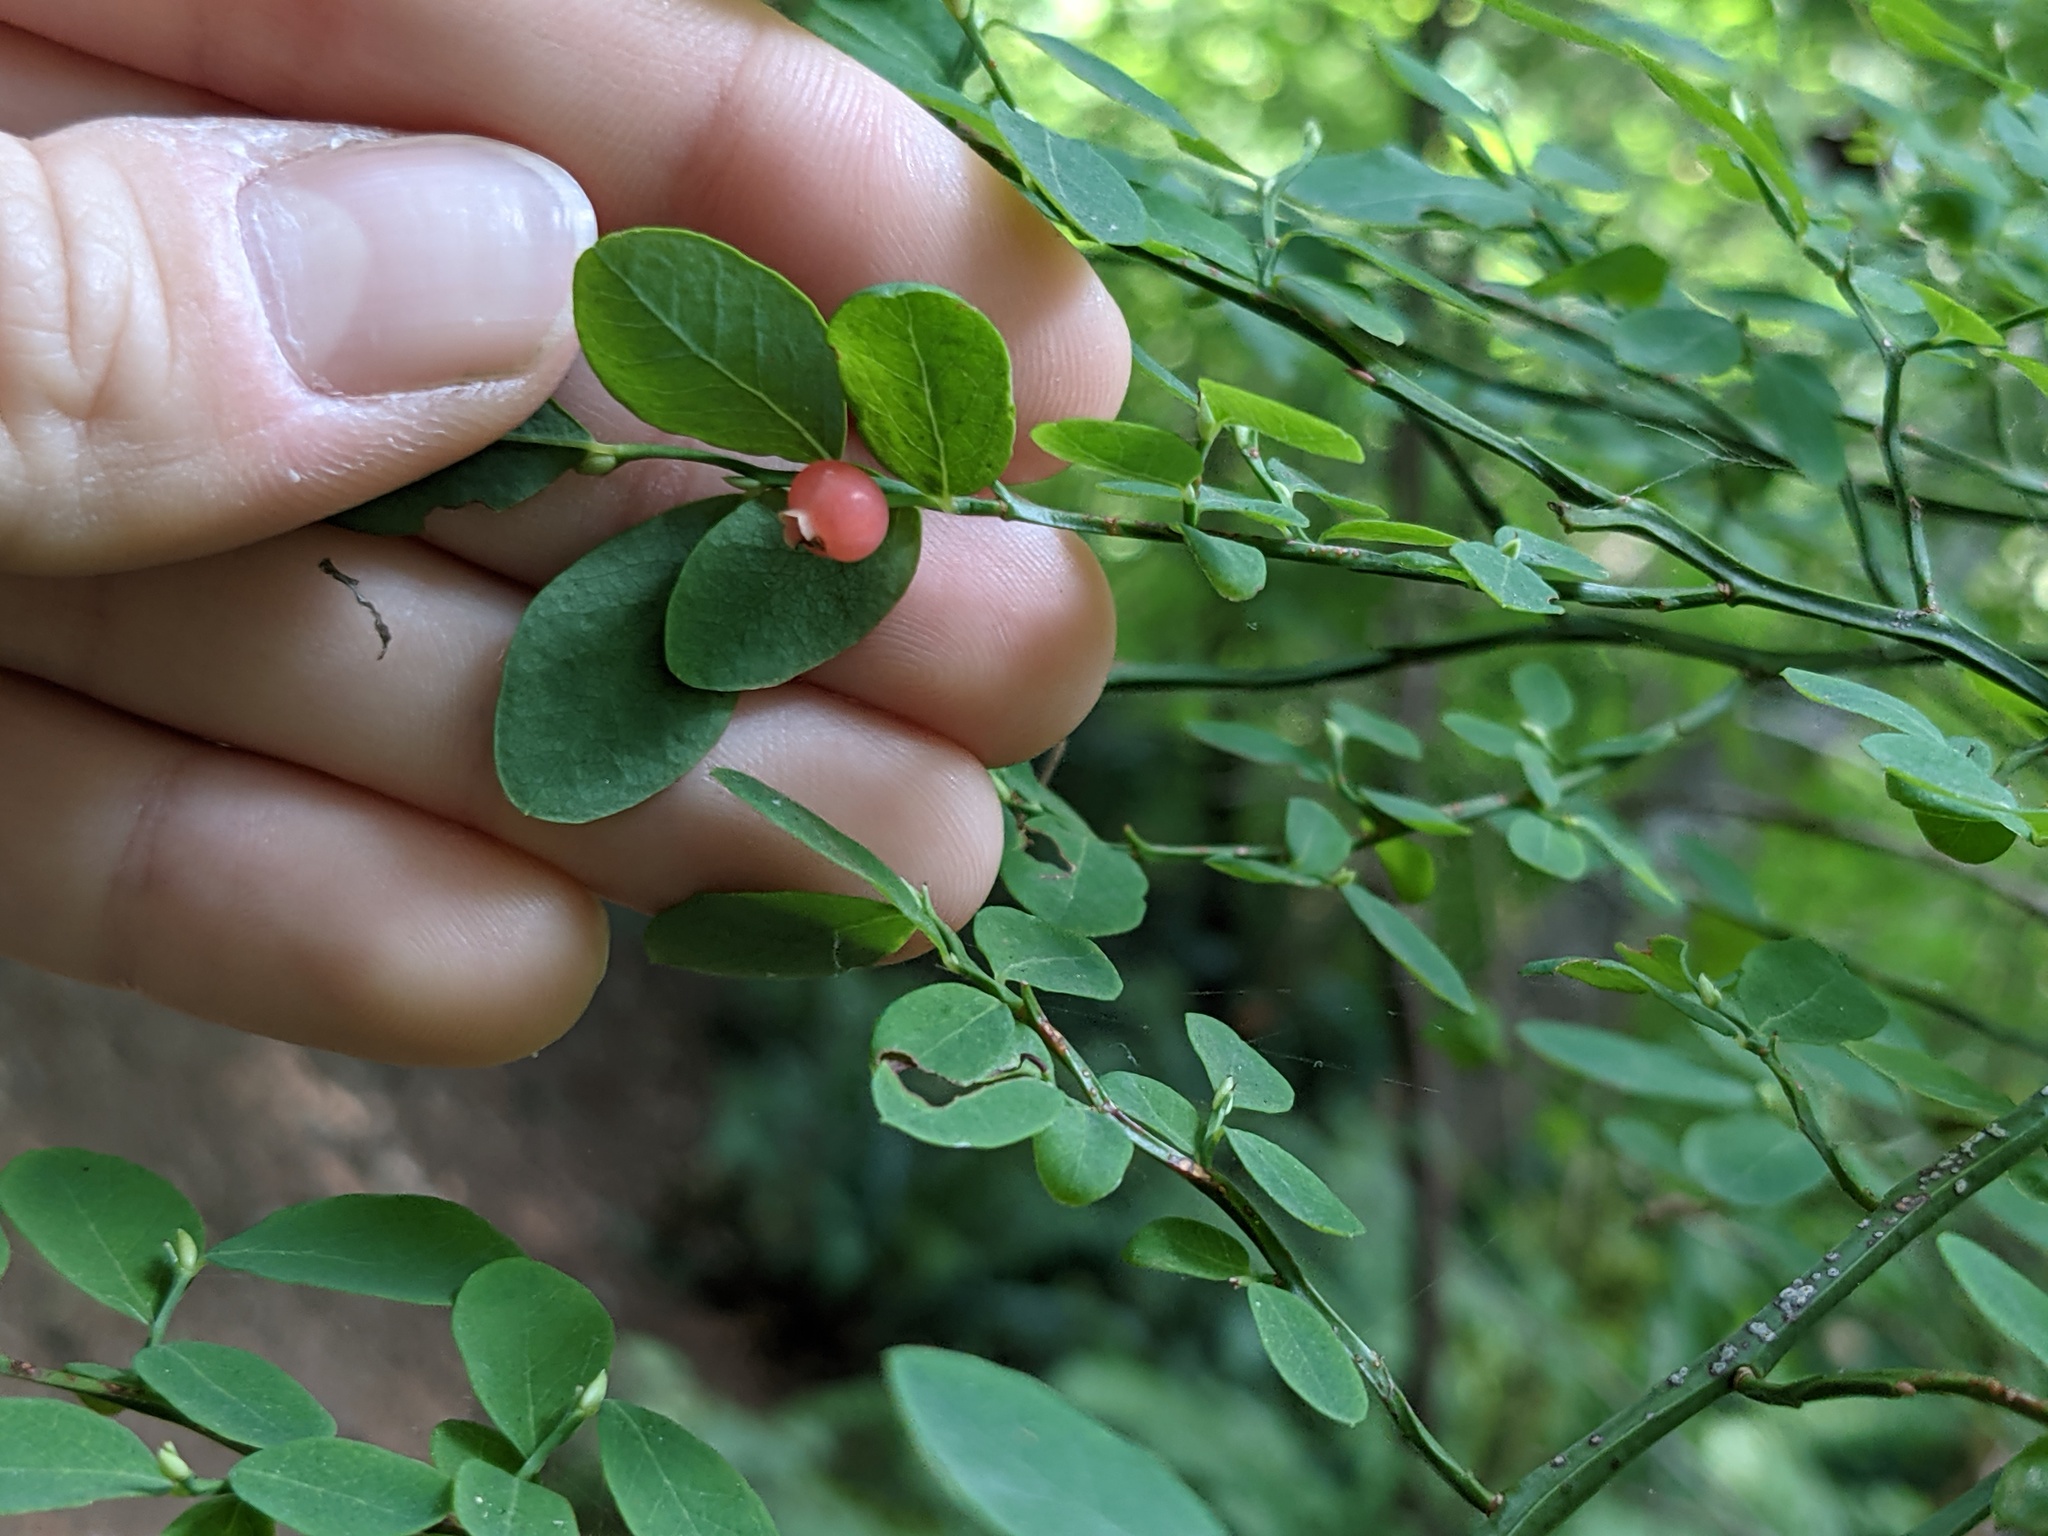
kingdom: Plantae
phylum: Tracheophyta
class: Magnoliopsida
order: Ericales
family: Ericaceae
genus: Vaccinium
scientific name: Vaccinium parvifolium
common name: Red-huckleberry
